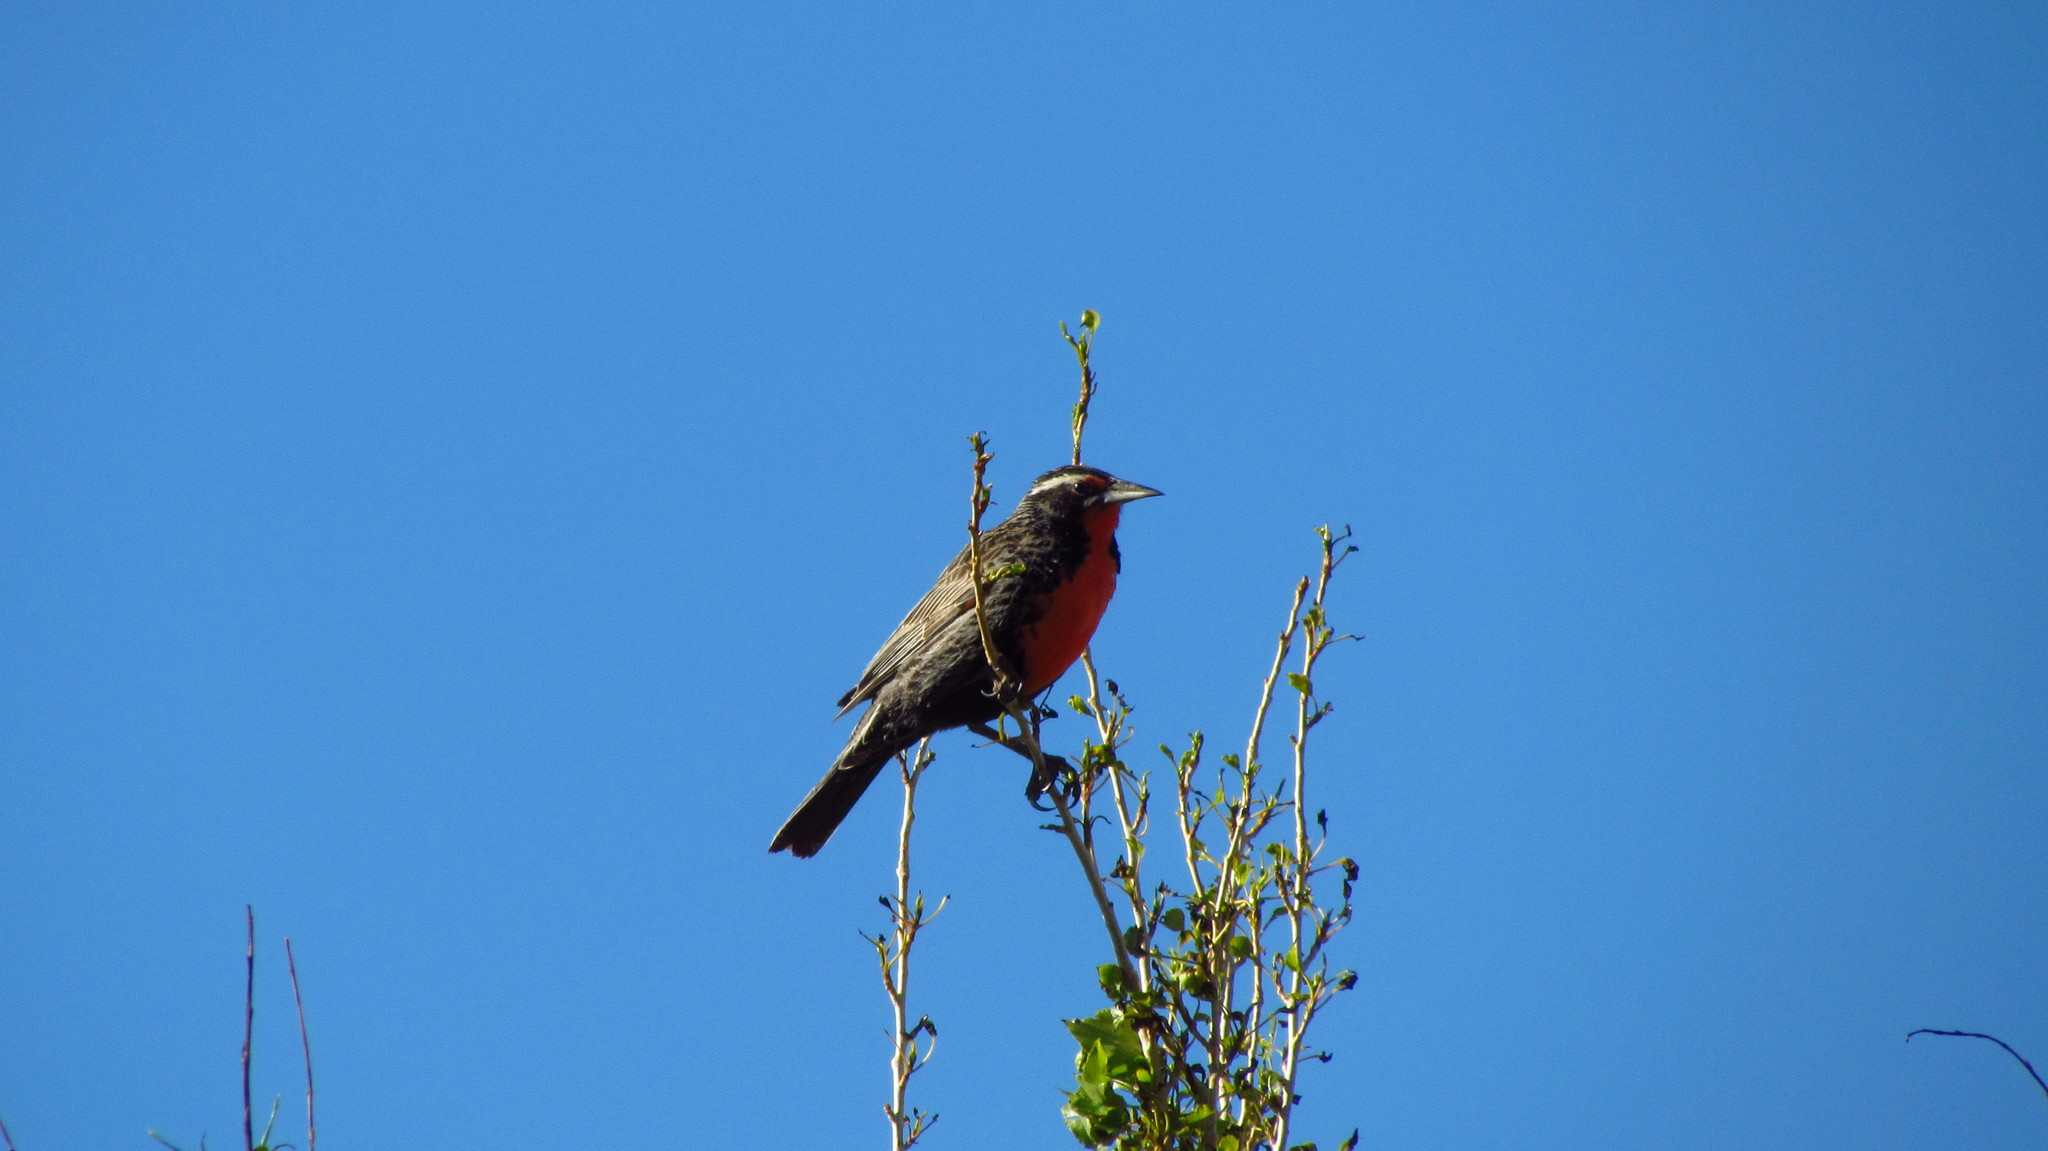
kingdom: Animalia
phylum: Chordata
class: Aves
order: Passeriformes
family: Icteridae
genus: Sturnella
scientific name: Sturnella loyca
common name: Long-tailed meadowlark
